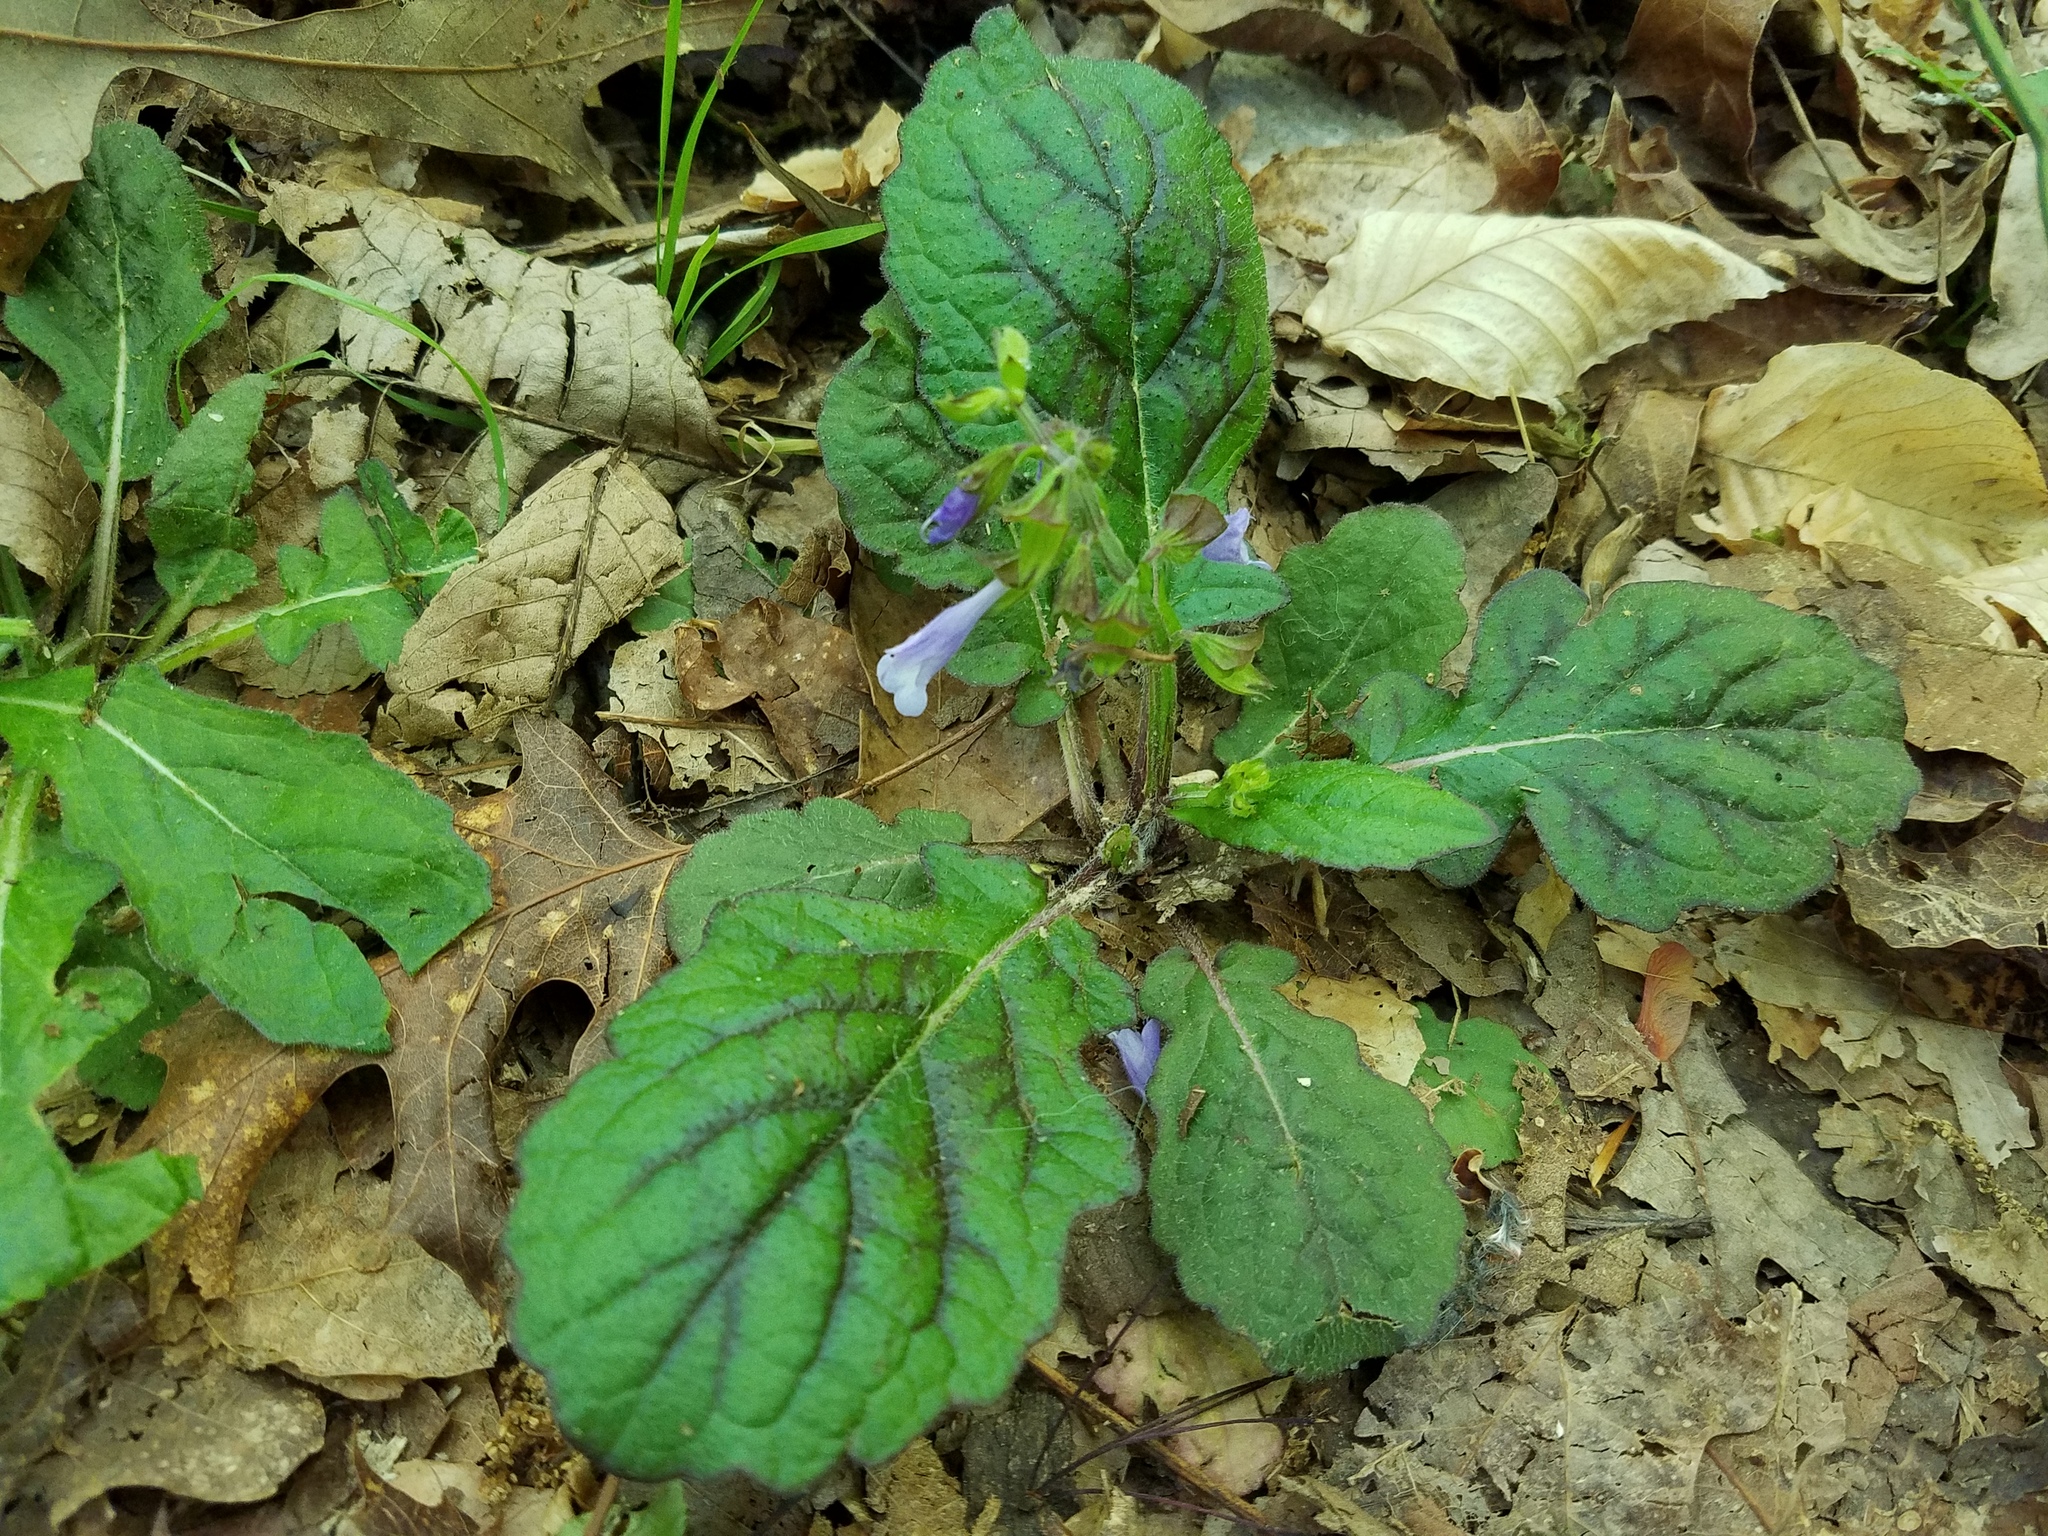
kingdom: Plantae
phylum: Tracheophyta
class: Magnoliopsida
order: Lamiales
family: Lamiaceae
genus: Salvia
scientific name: Salvia lyrata
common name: Cancerweed
